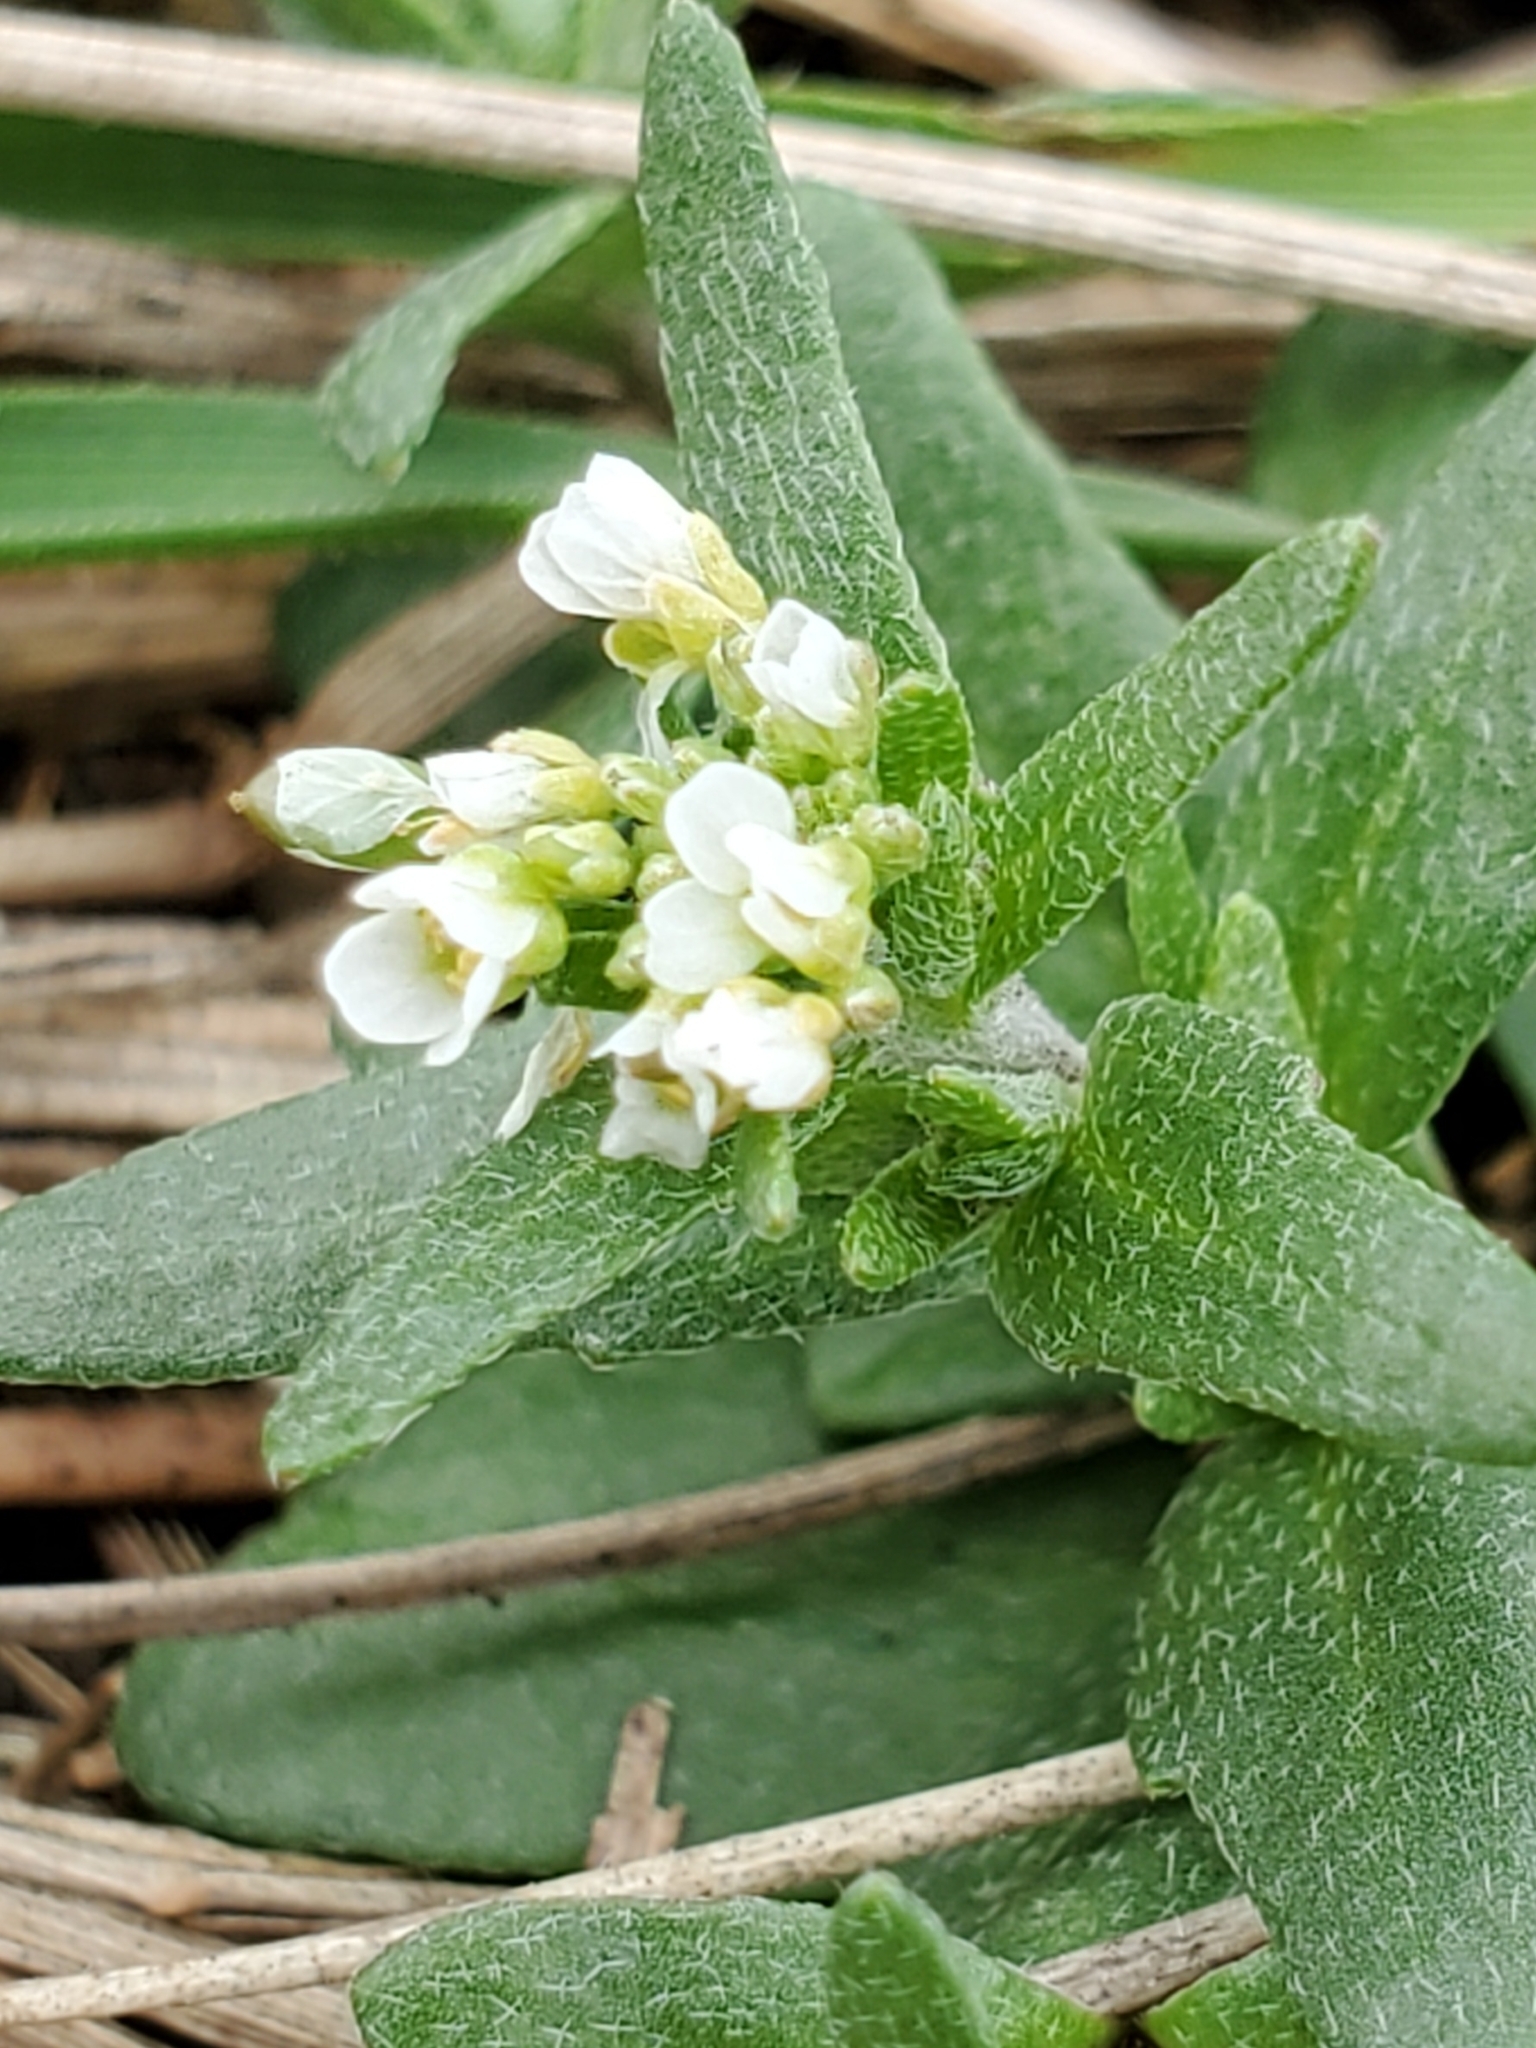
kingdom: Plantae
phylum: Tracheophyta
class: Magnoliopsida
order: Brassicales
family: Brassicaceae
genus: Abdra
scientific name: Abdra brachycarpa
